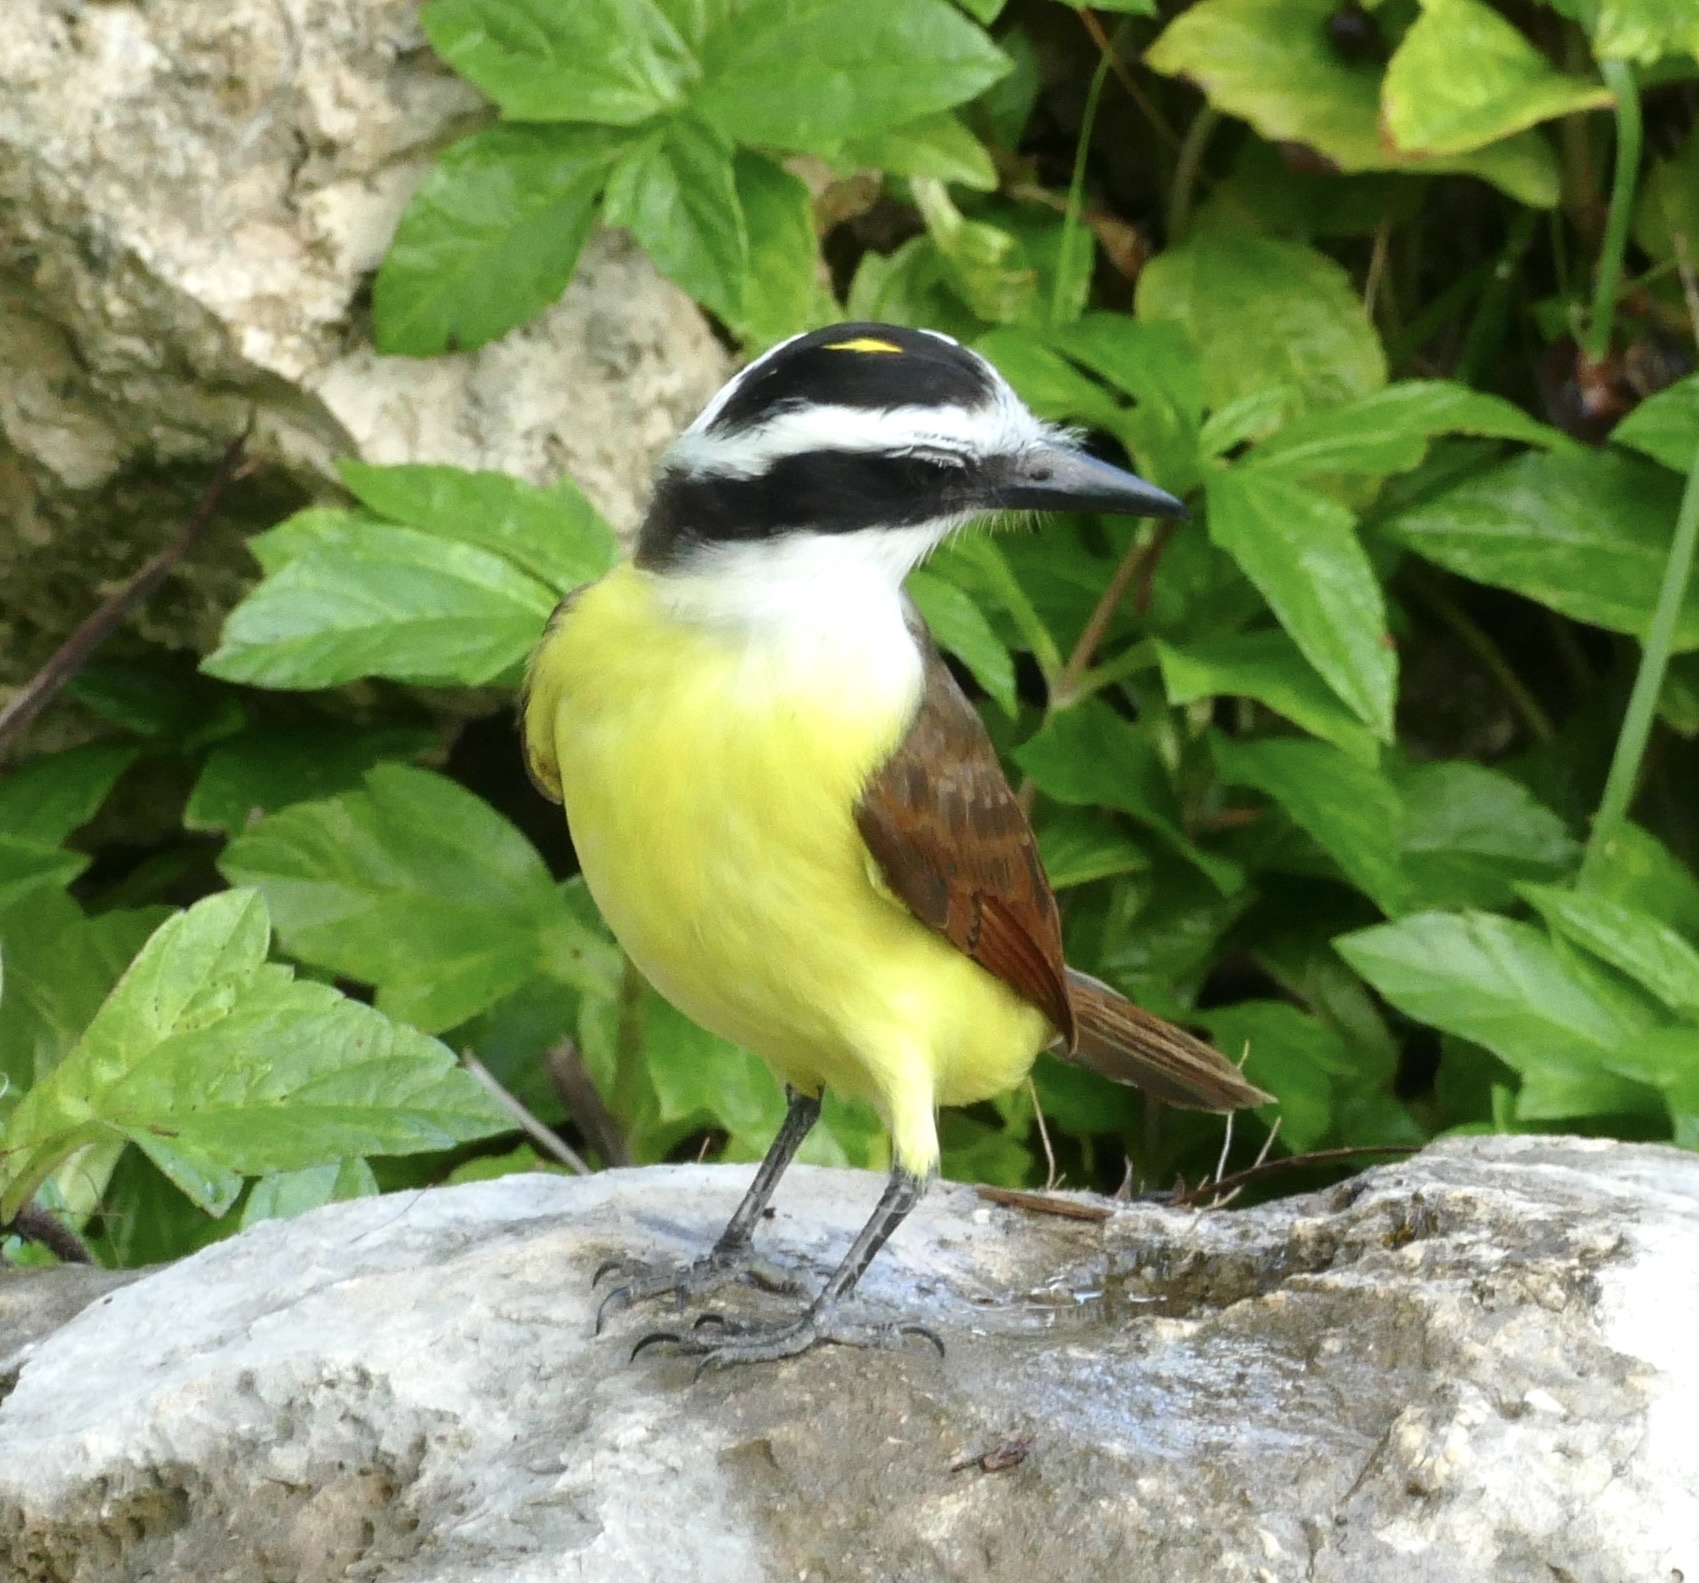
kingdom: Animalia
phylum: Chordata
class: Aves
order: Passeriformes
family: Tyrannidae
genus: Pitangus
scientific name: Pitangus sulphuratus
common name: Great kiskadee
